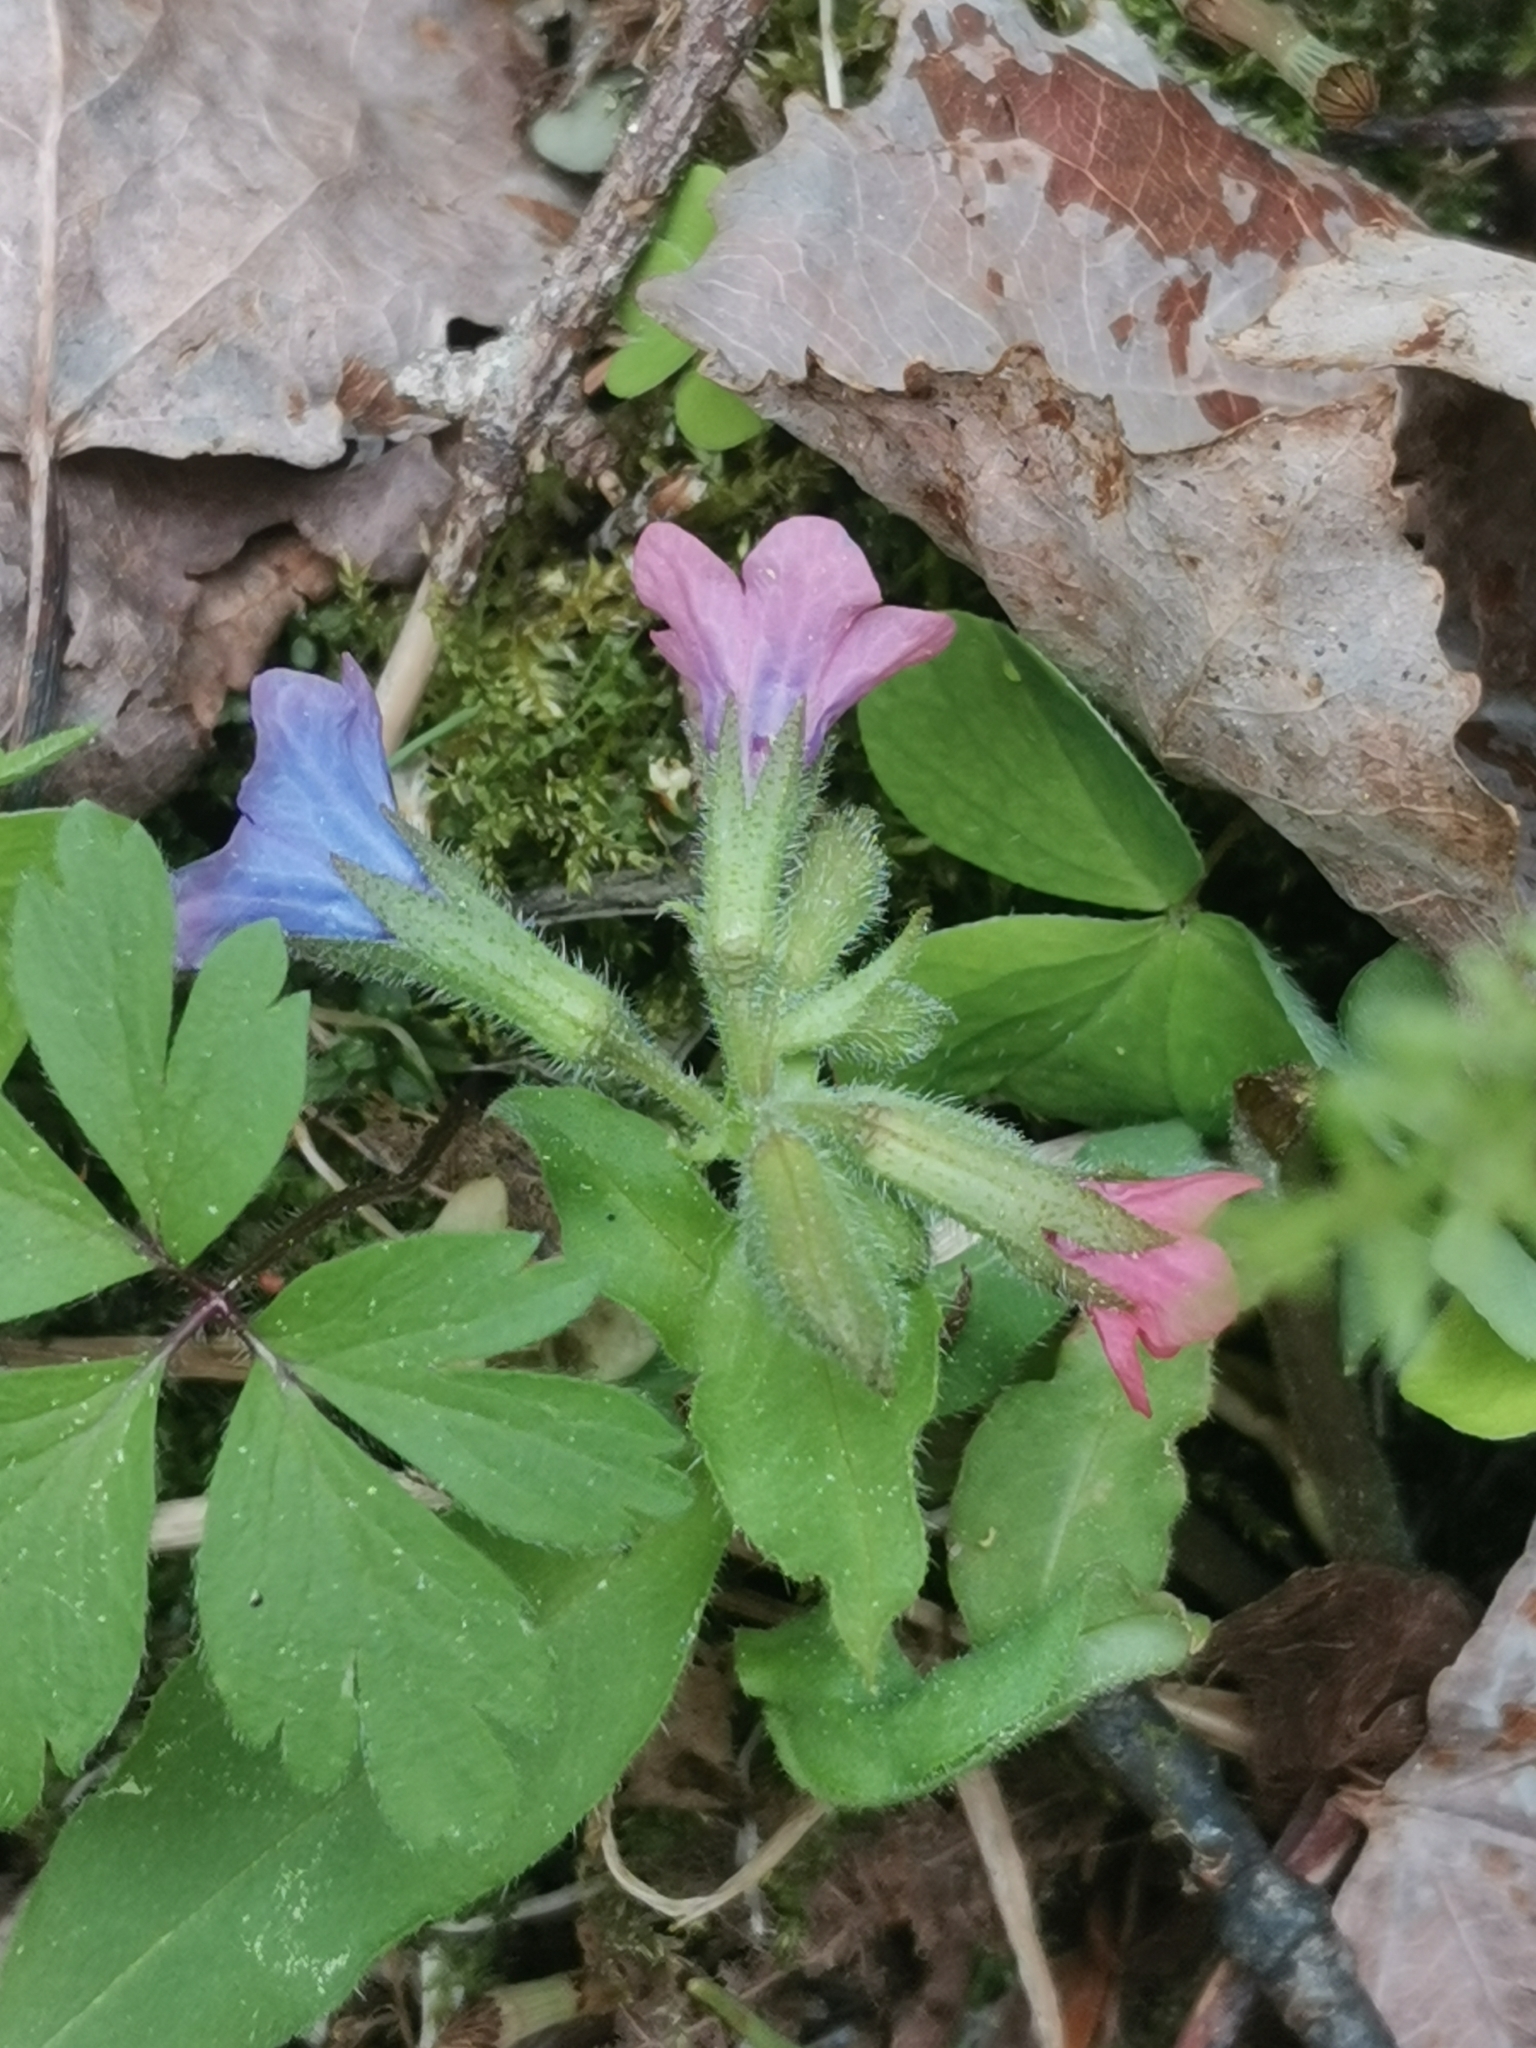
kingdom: Plantae
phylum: Tracheophyta
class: Magnoliopsida
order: Boraginales
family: Boraginaceae
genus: Pulmonaria
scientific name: Pulmonaria obscura
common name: Suffolk lungwort
